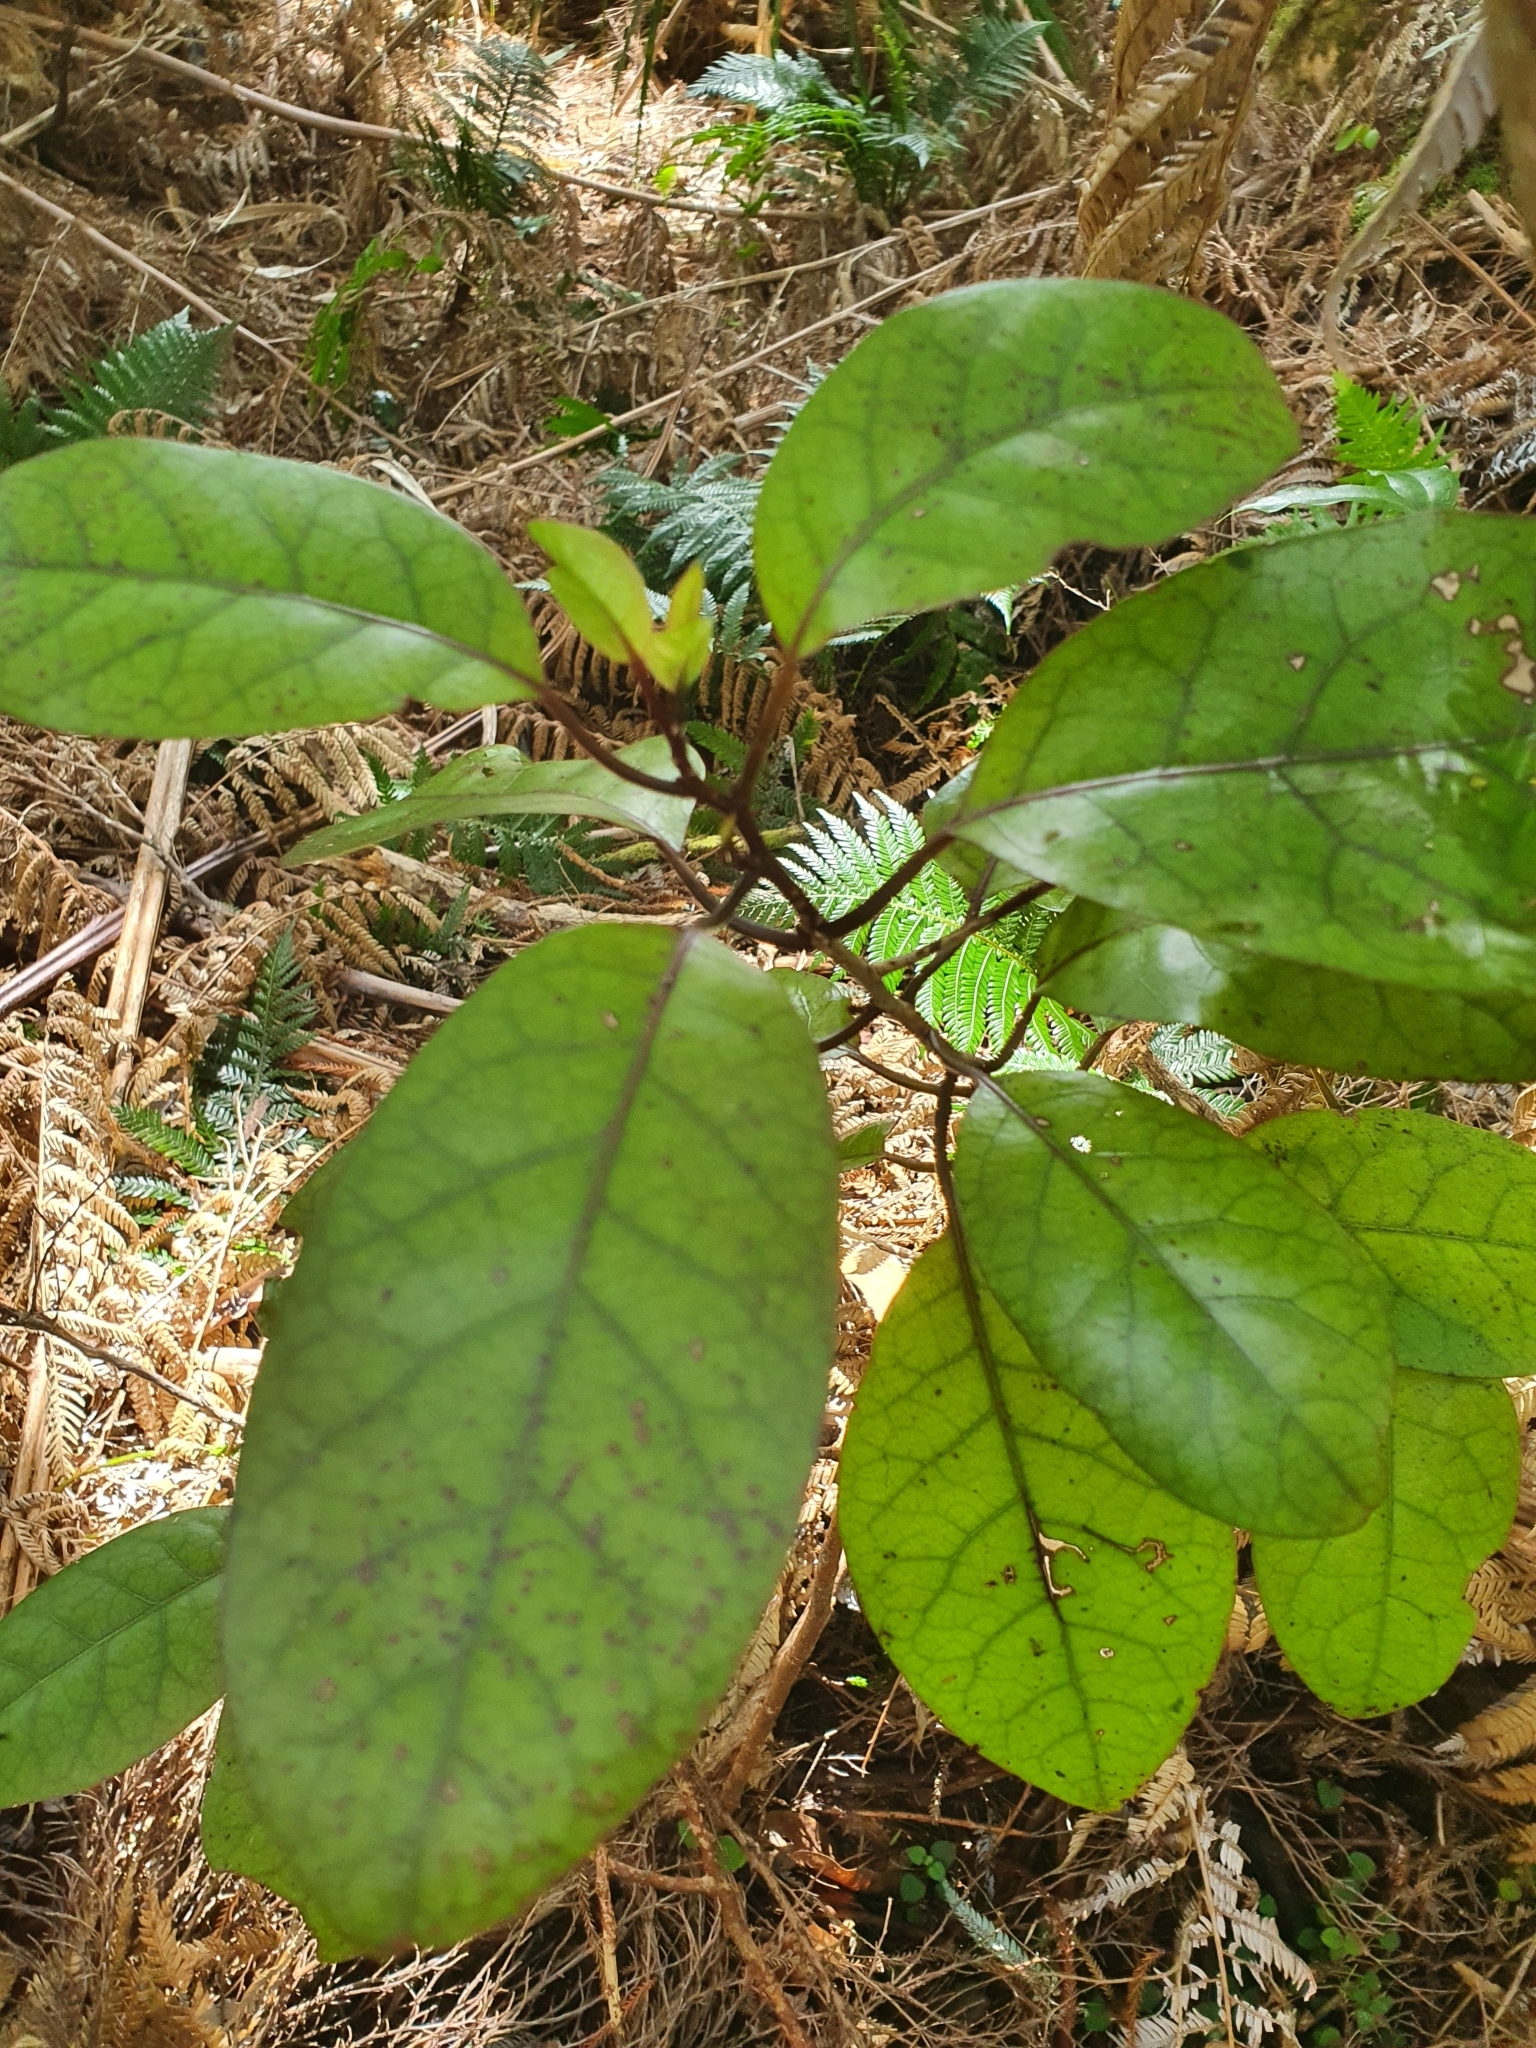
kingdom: Plantae
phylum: Tracheophyta
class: Magnoliopsida
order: Laurales
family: Lauraceae
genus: Litsea
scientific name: Litsea calicaris
